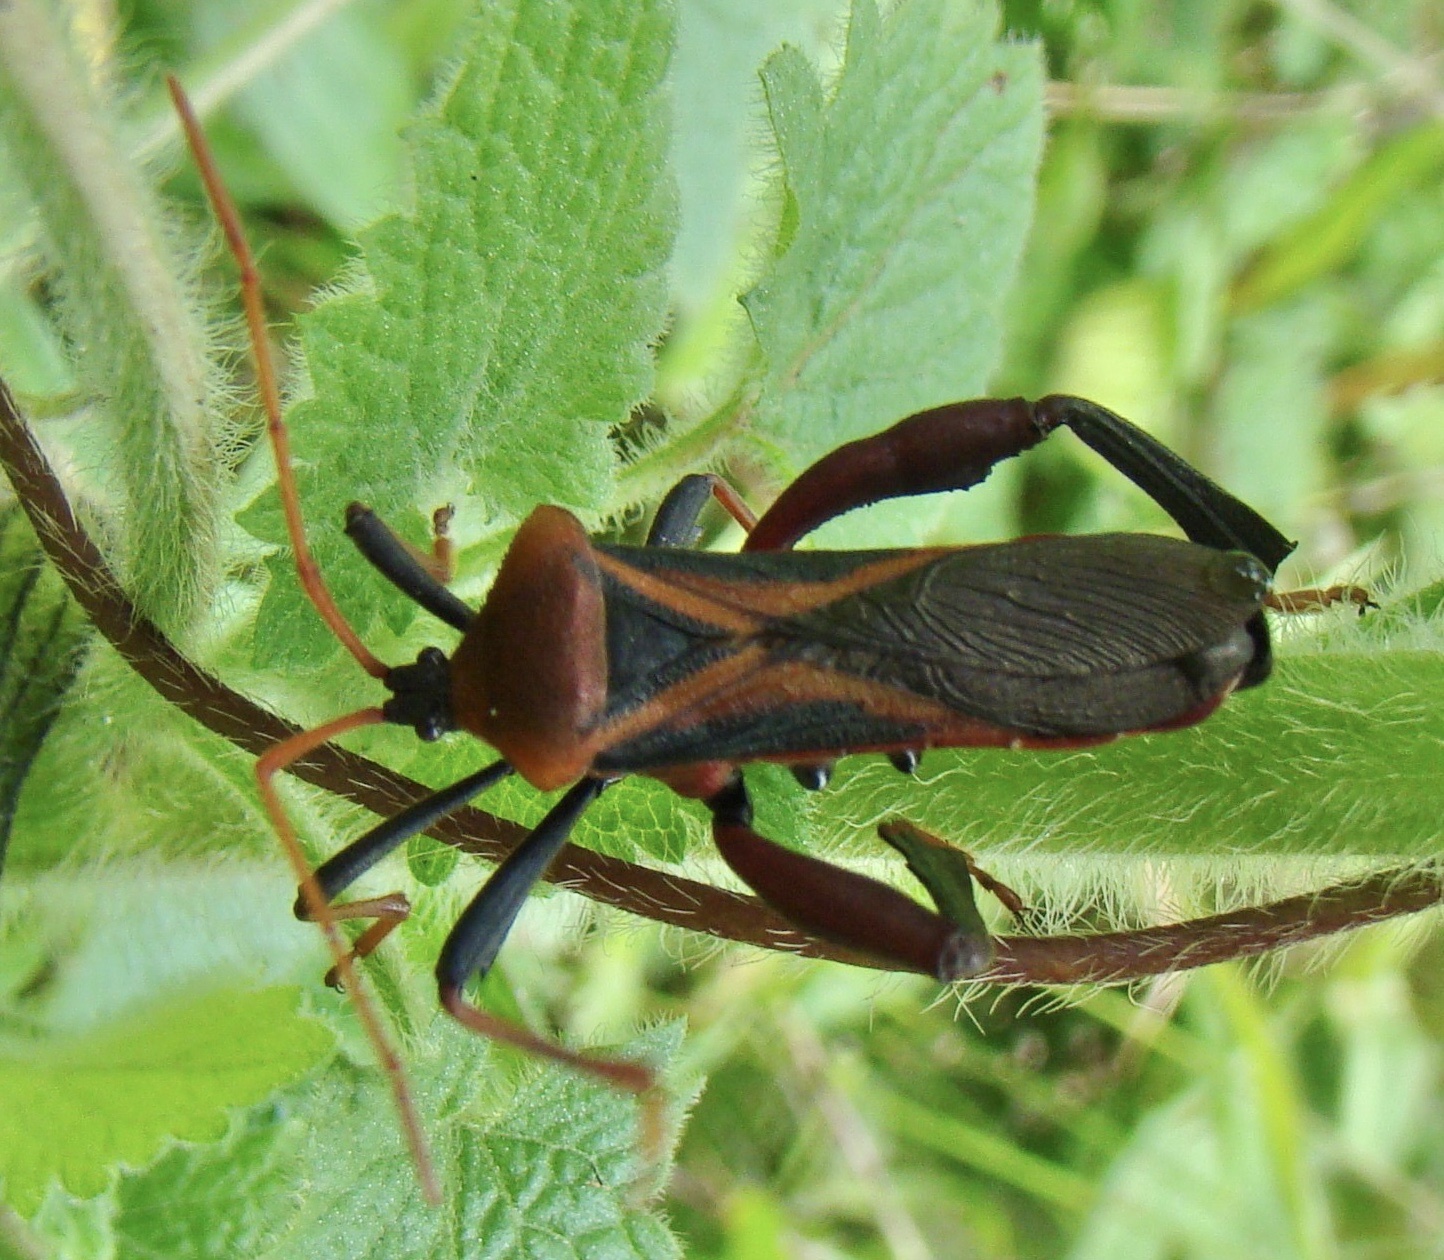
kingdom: Animalia
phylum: Arthropoda
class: Insecta
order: Hemiptera
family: Coreidae
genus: Plectropoda
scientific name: Plectropoda bicolor
